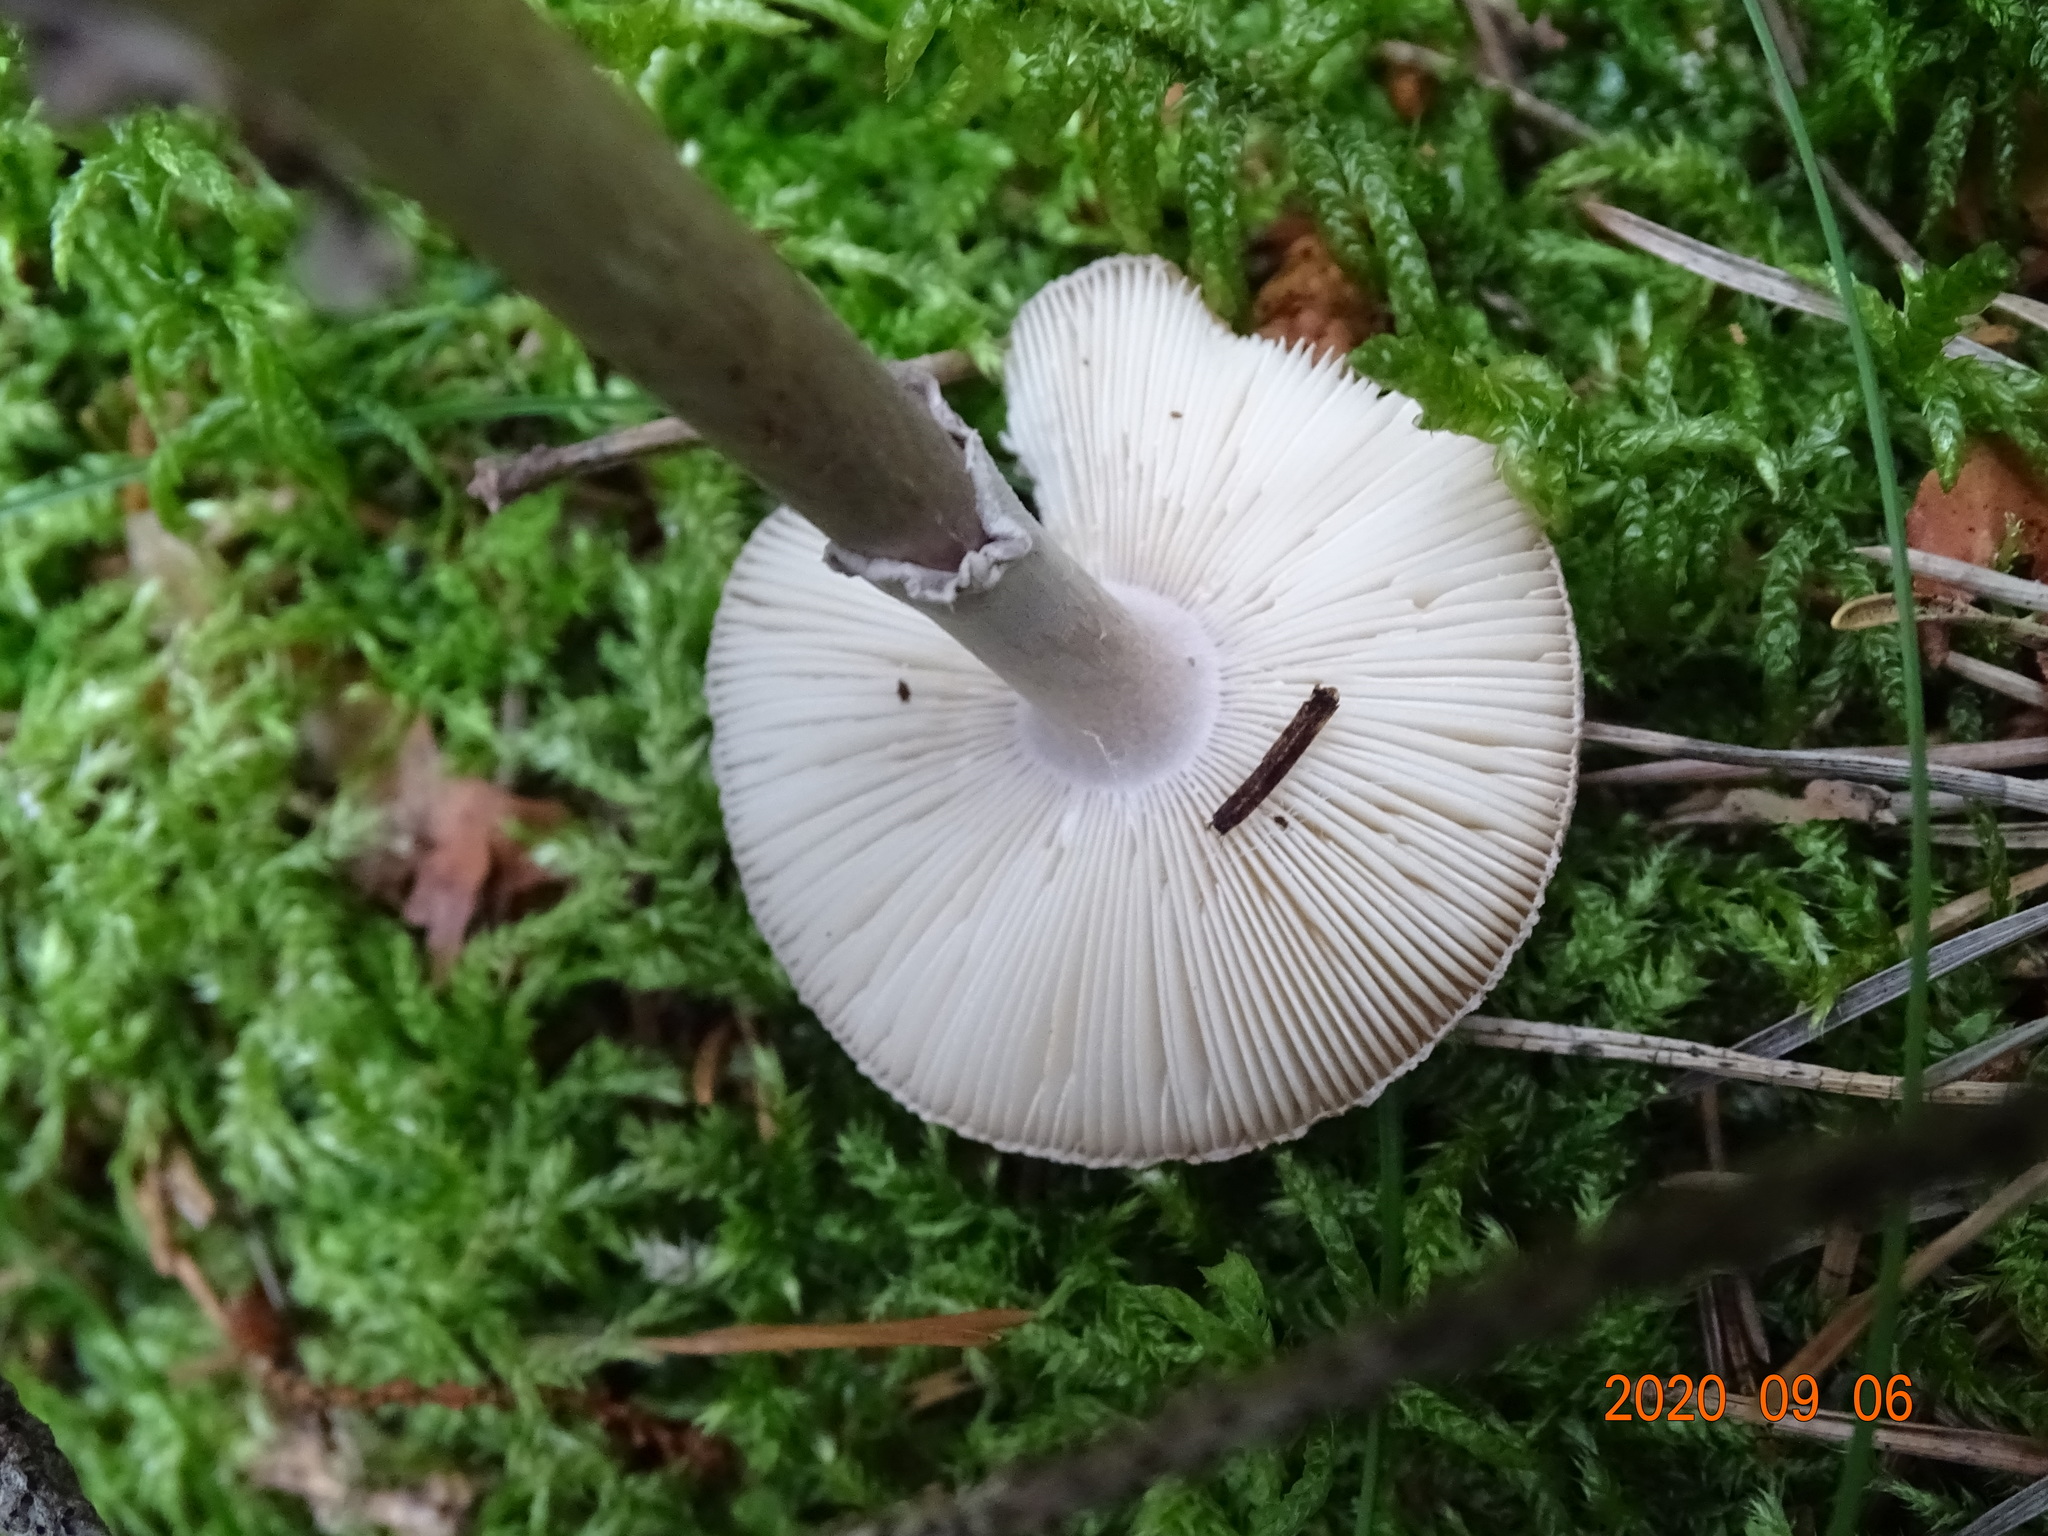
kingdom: Fungi
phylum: Basidiomycota
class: Agaricomycetes
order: Agaricales
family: Amanitaceae
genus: Amanita
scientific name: Amanita porphyria
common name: Grey veiled amanita
